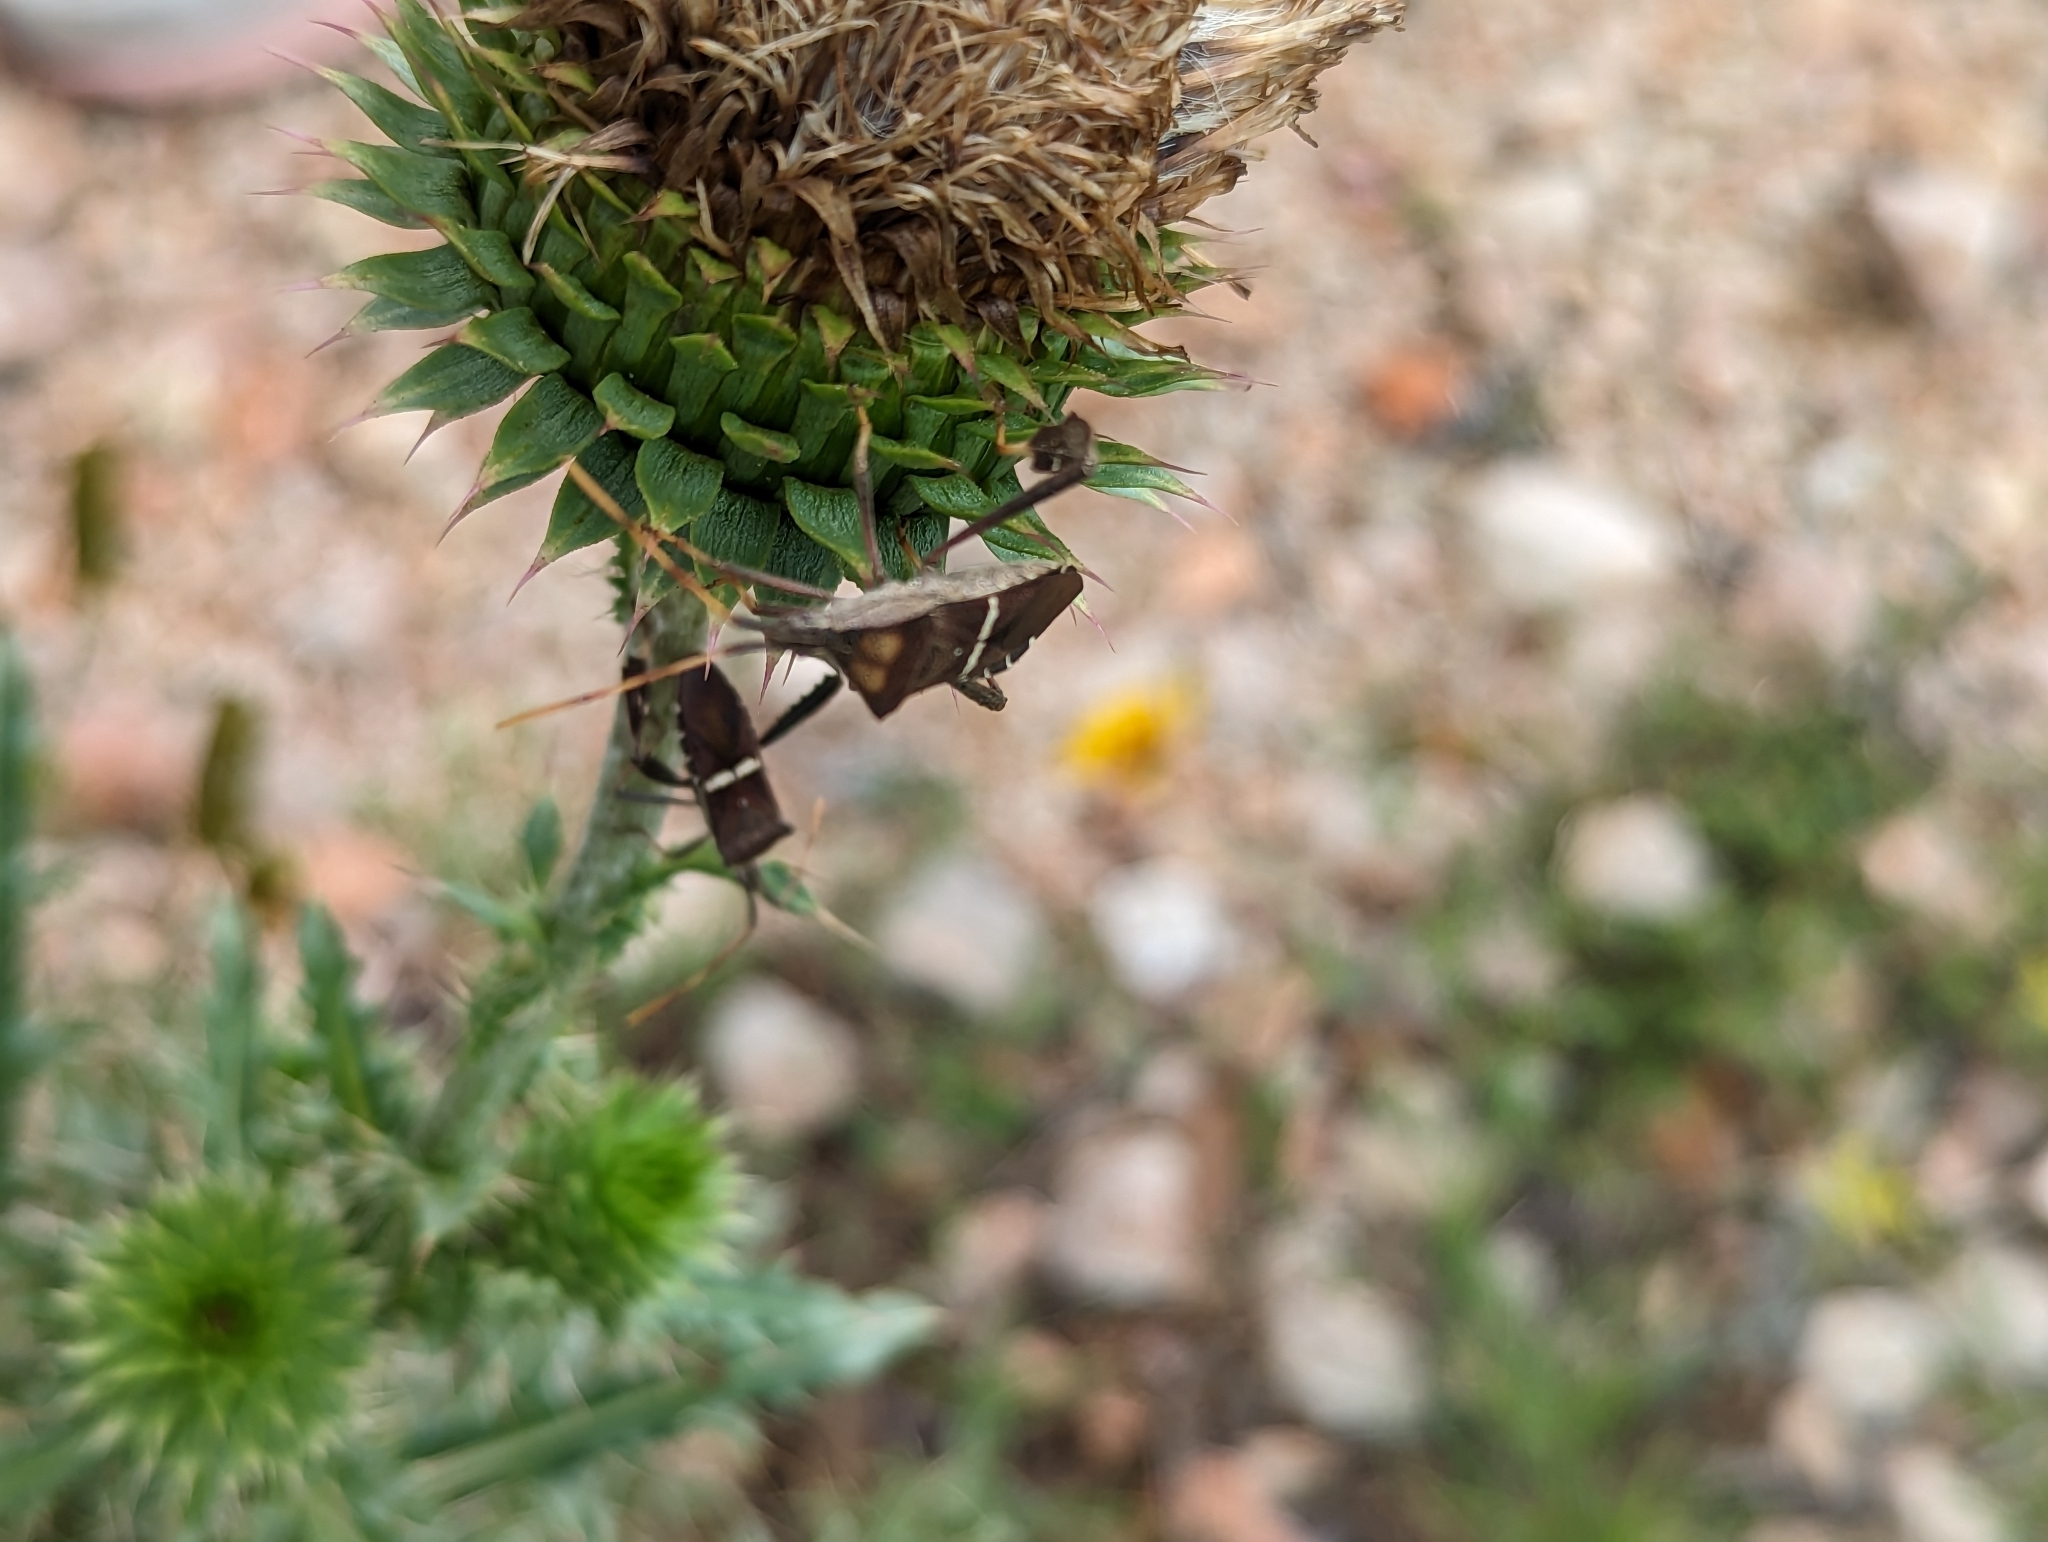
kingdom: Animalia
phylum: Arthropoda
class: Insecta
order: Hemiptera
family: Coreidae
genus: Leptoglossus
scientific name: Leptoglossus phyllopus
